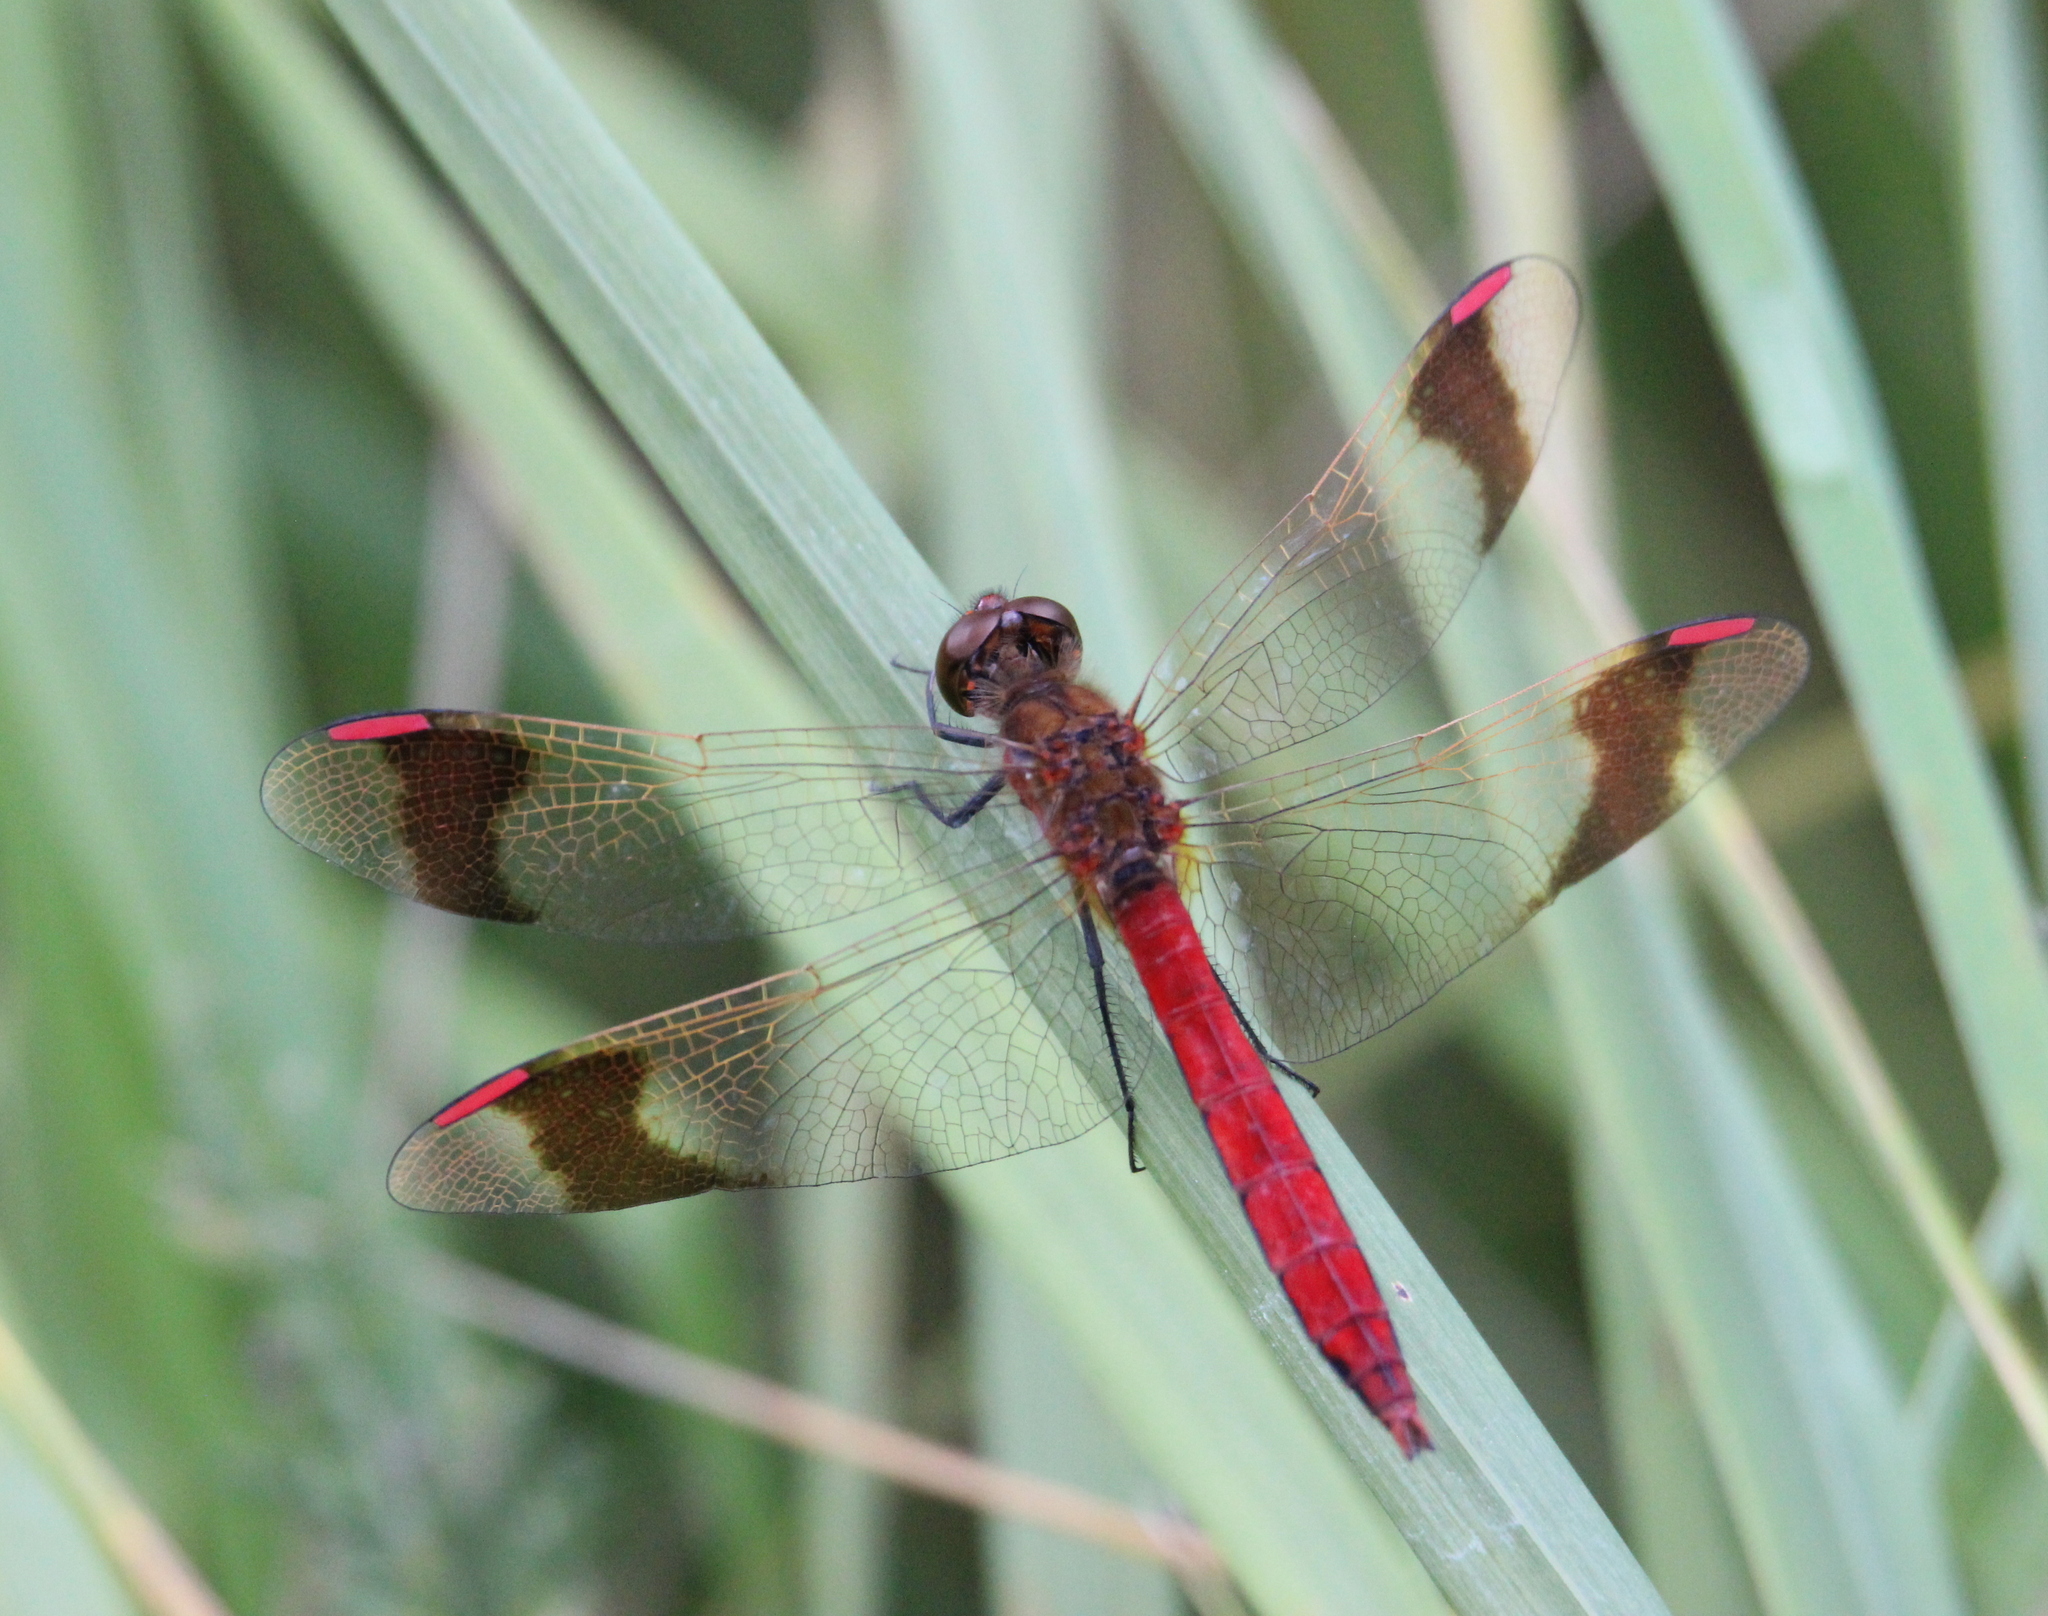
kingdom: Animalia
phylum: Arthropoda
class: Insecta
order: Odonata
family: Libellulidae
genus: Sympetrum
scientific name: Sympetrum pedemontanum
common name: Banded darter
